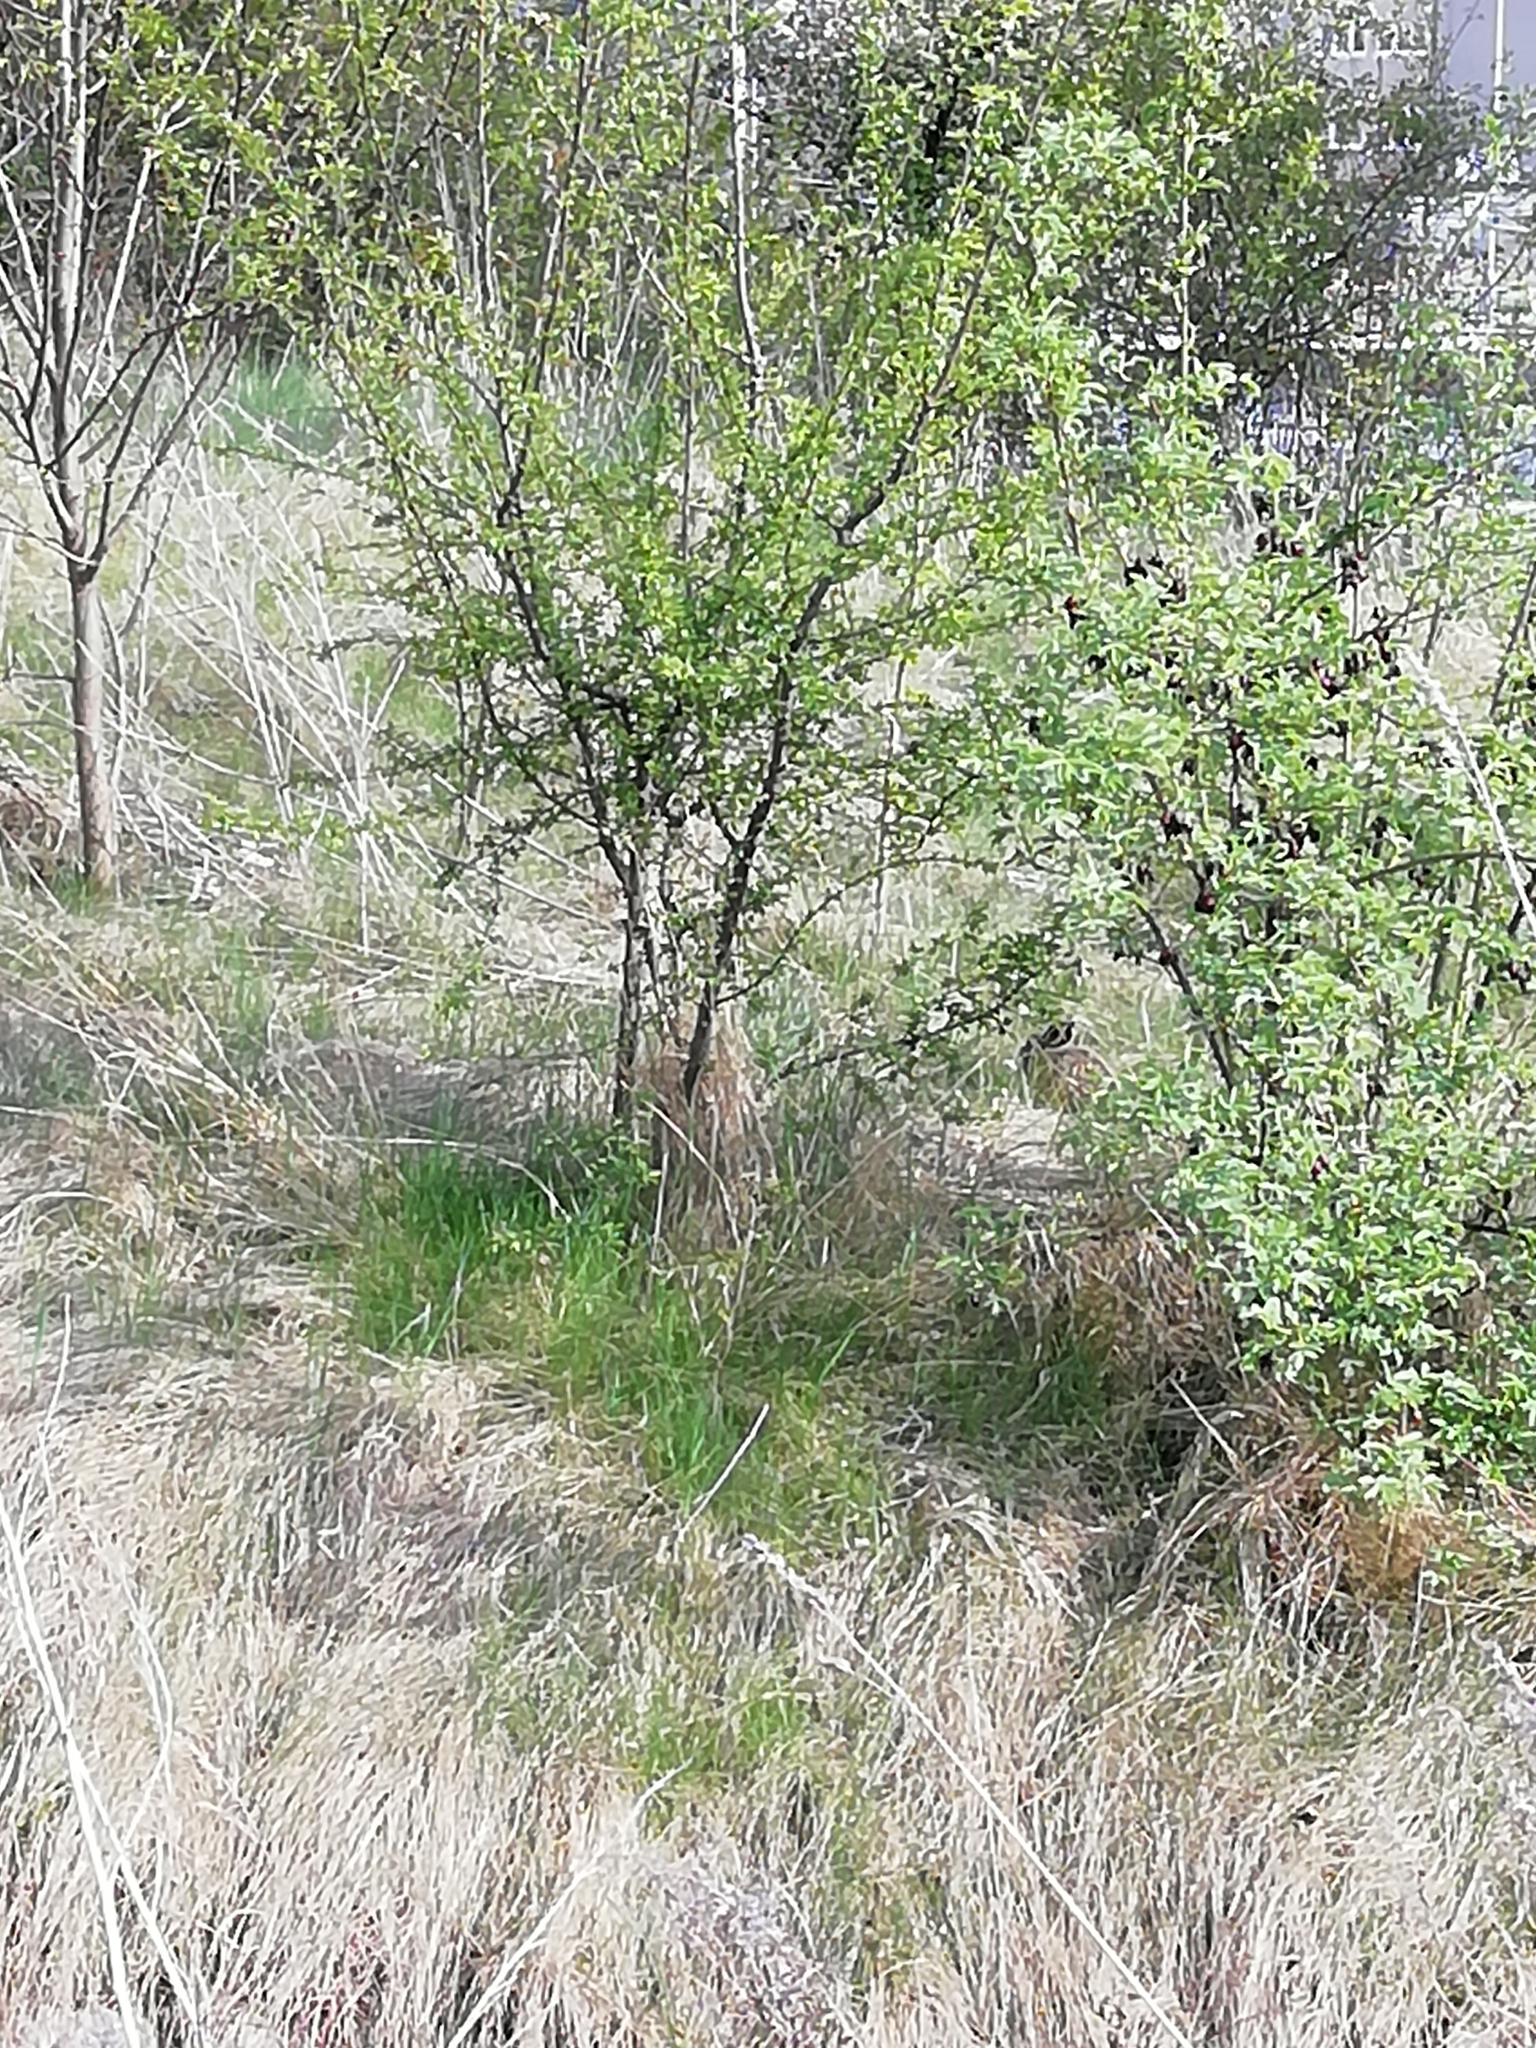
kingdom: Animalia
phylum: Chordata
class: Mammalia
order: Lagomorpha
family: Leporidae
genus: Lepus
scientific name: Lepus europaeus
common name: European hare
